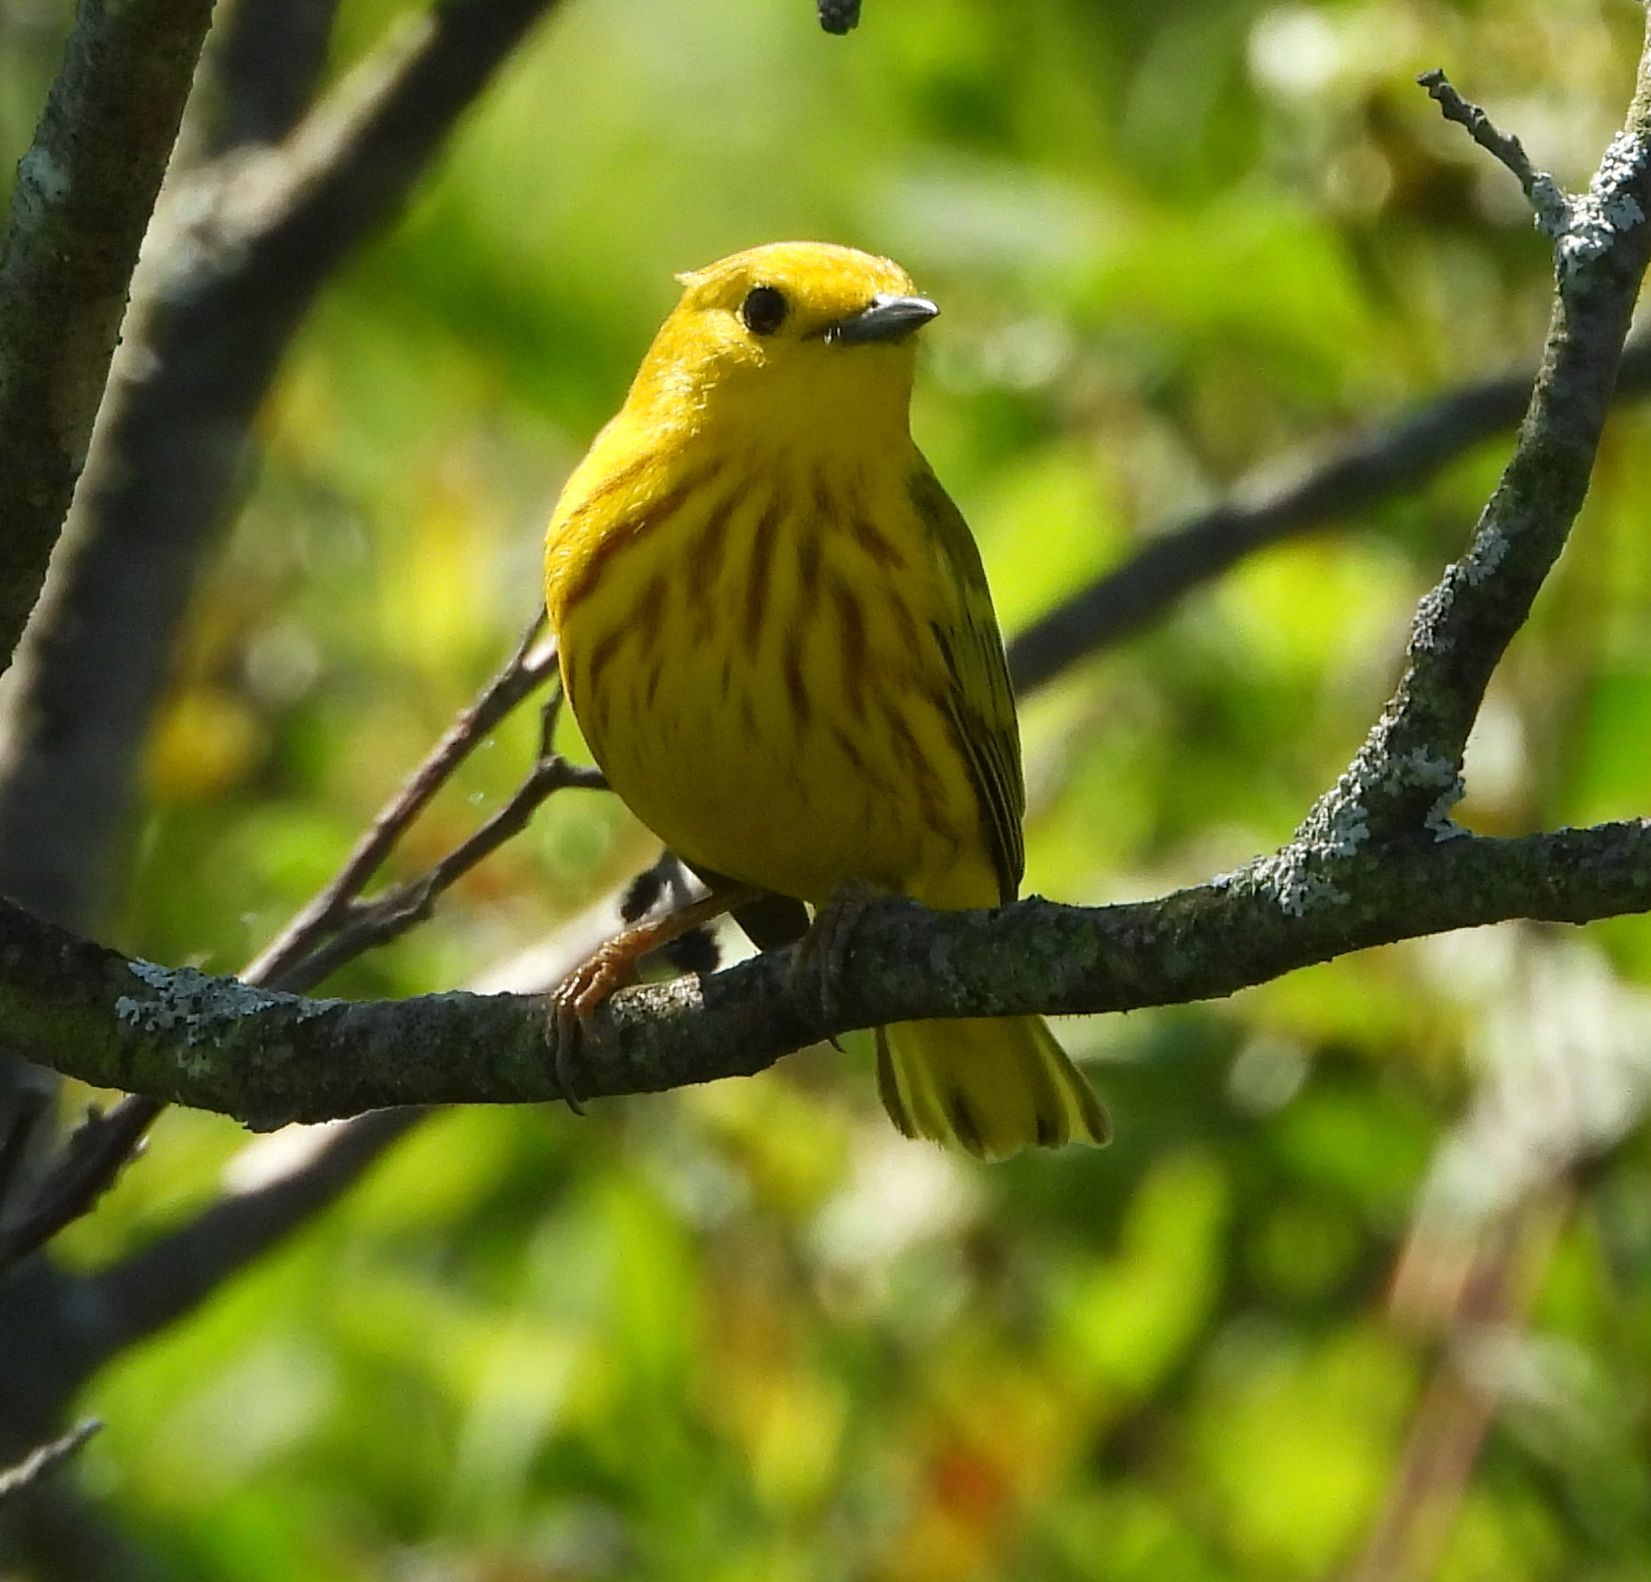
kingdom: Animalia
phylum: Chordata
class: Aves
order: Passeriformes
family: Parulidae
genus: Setophaga
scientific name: Setophaga petechia
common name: Yellow warbler
